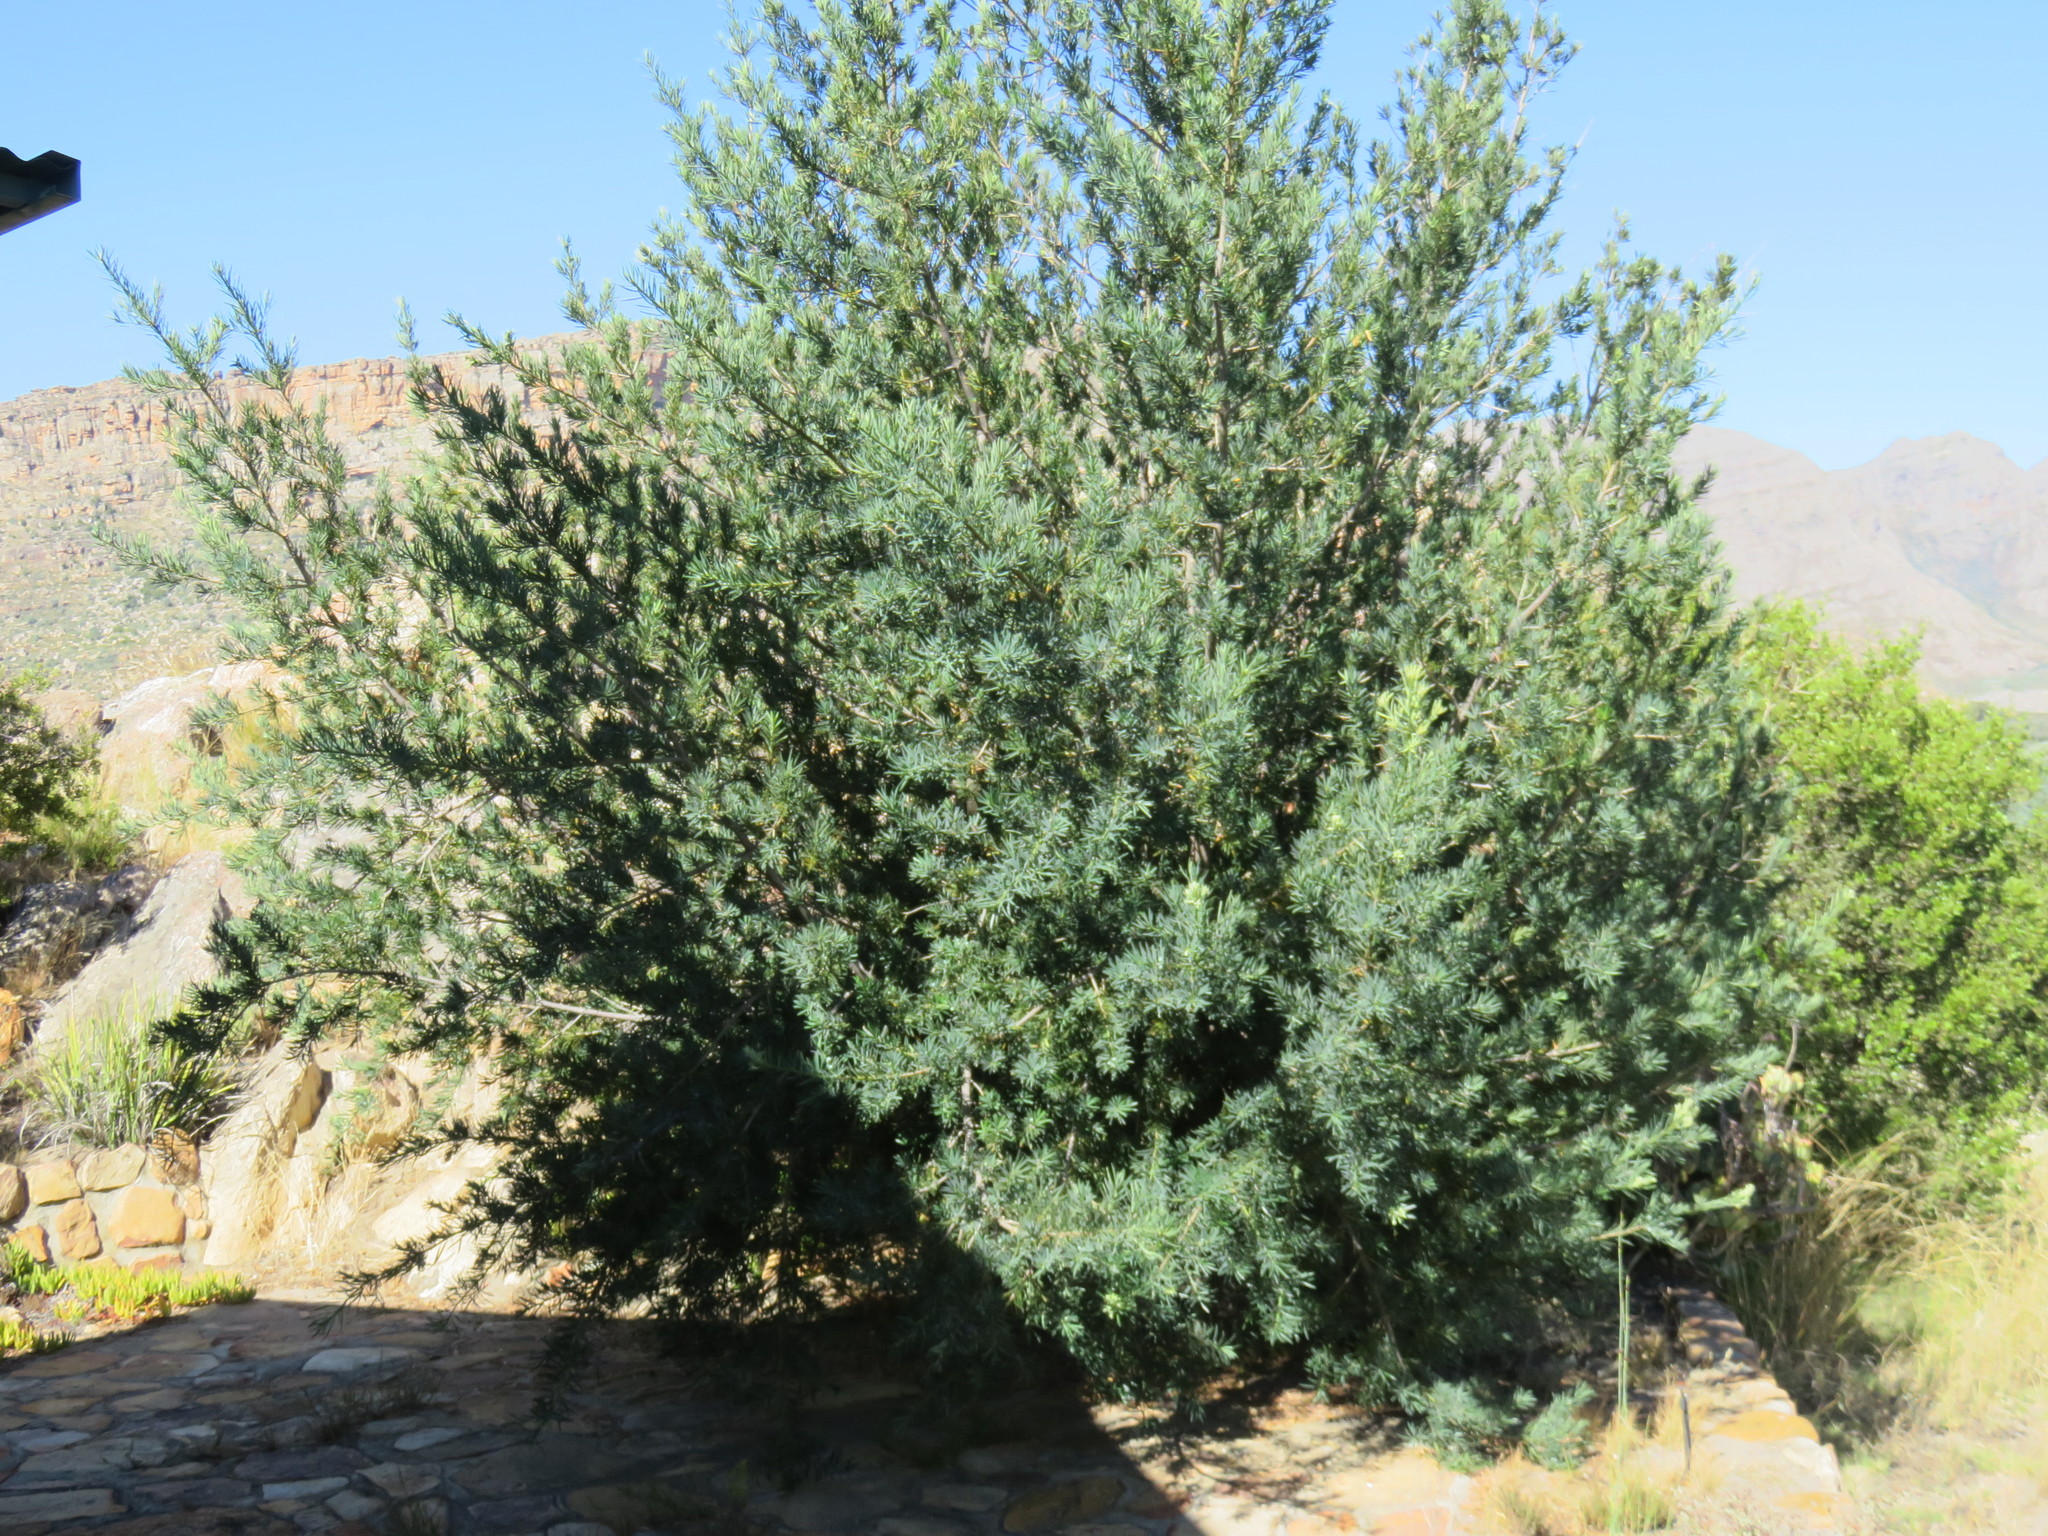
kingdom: Plantae
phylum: Tracheophyta
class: Pinopsida
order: Pinales
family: Podocarpaceae
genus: Podocarpus
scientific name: Podocarpus elongatus
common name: Breede river yellowwood
